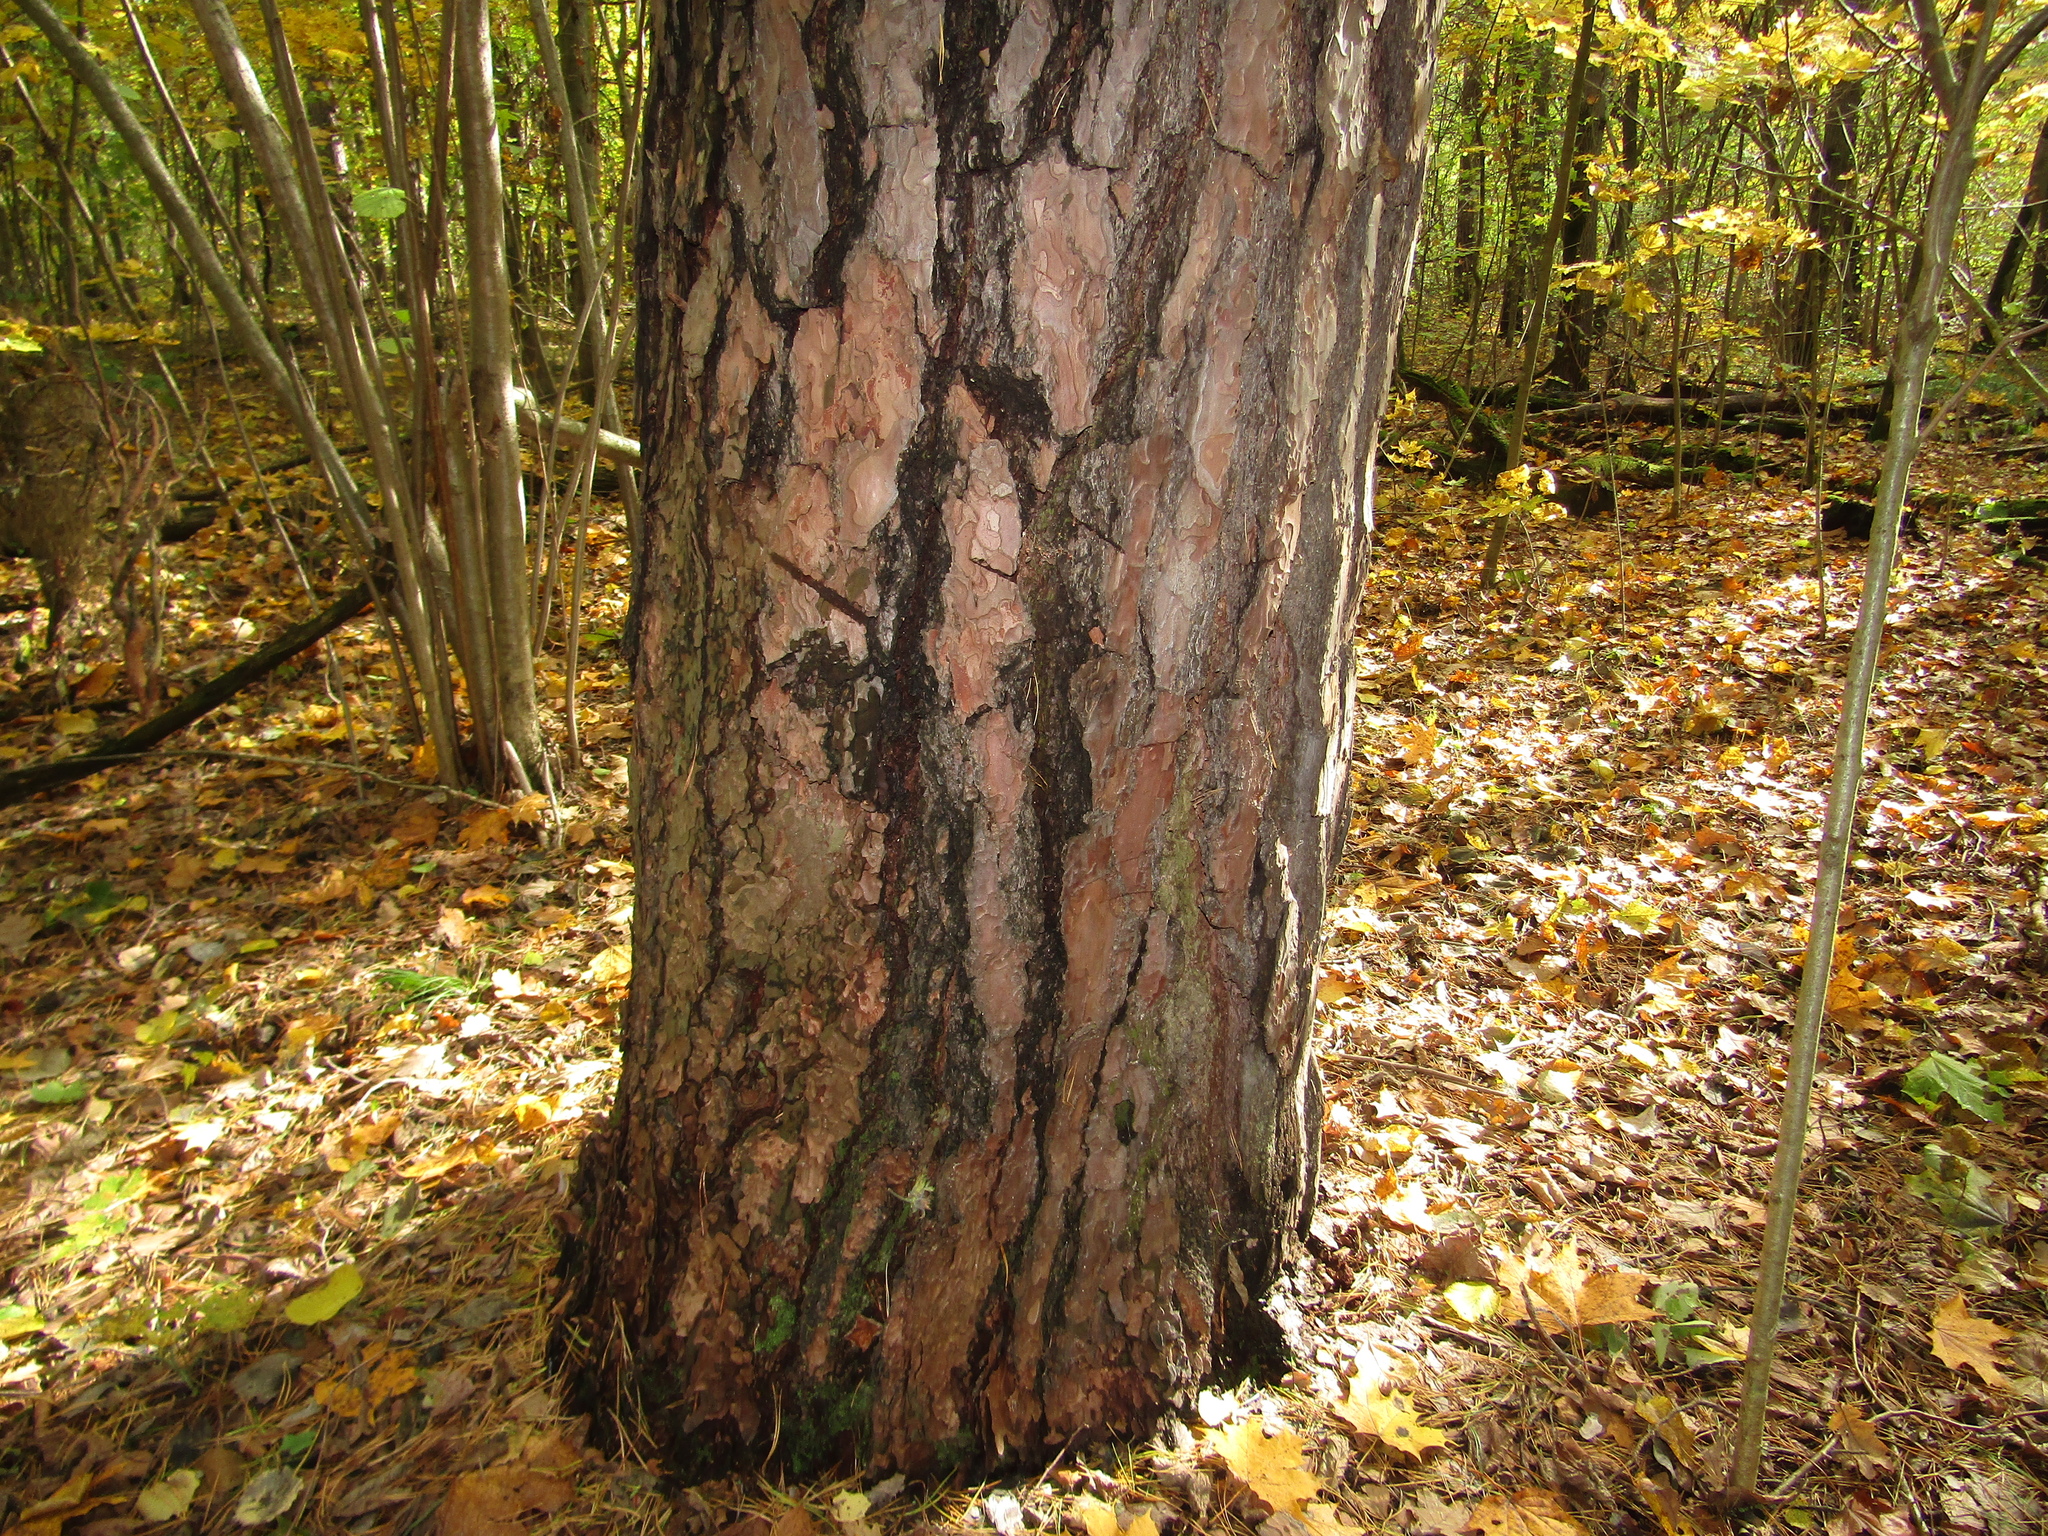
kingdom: Plantae
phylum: Tracheophyta
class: Pinopsida
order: Pinales
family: Pinaceae
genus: Pinus
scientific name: Pinus sylvestris
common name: Scots pine
